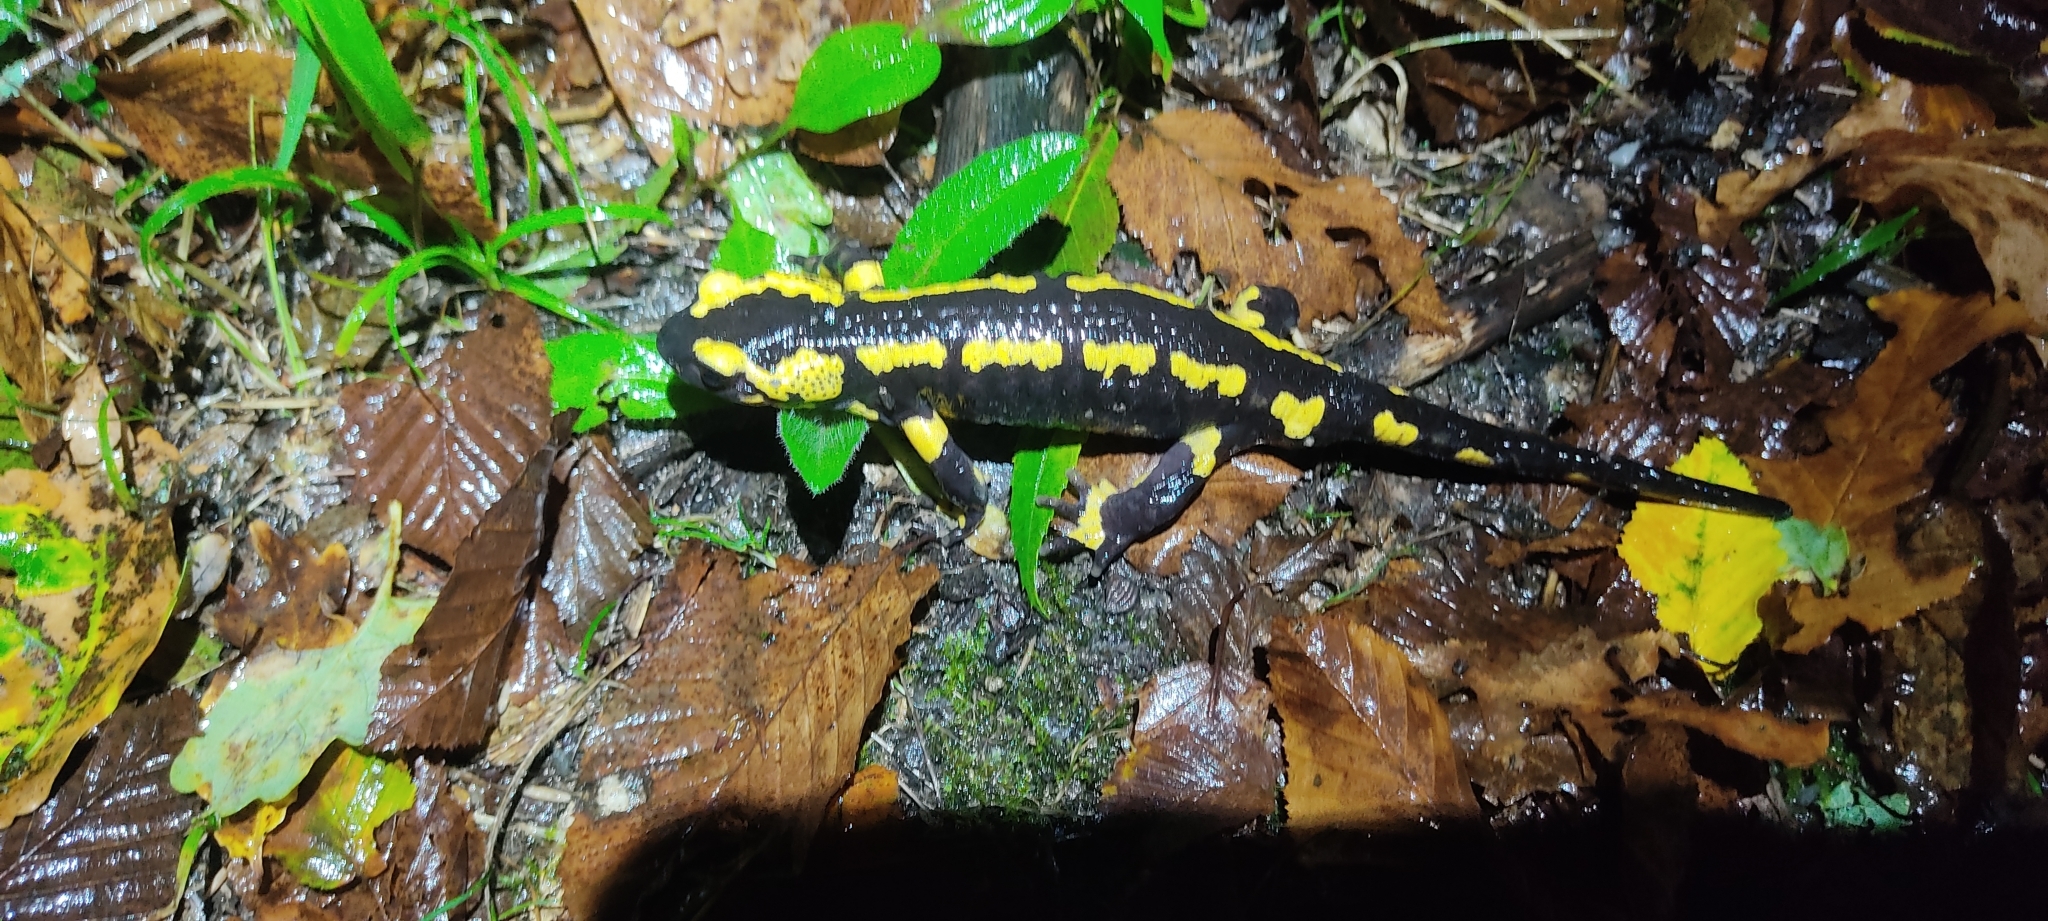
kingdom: Animalia
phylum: Chordata
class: Amphibia
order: Caudata
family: Salamandridae
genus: Salamandra
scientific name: Salamandra salamandra
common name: Fire salamander
